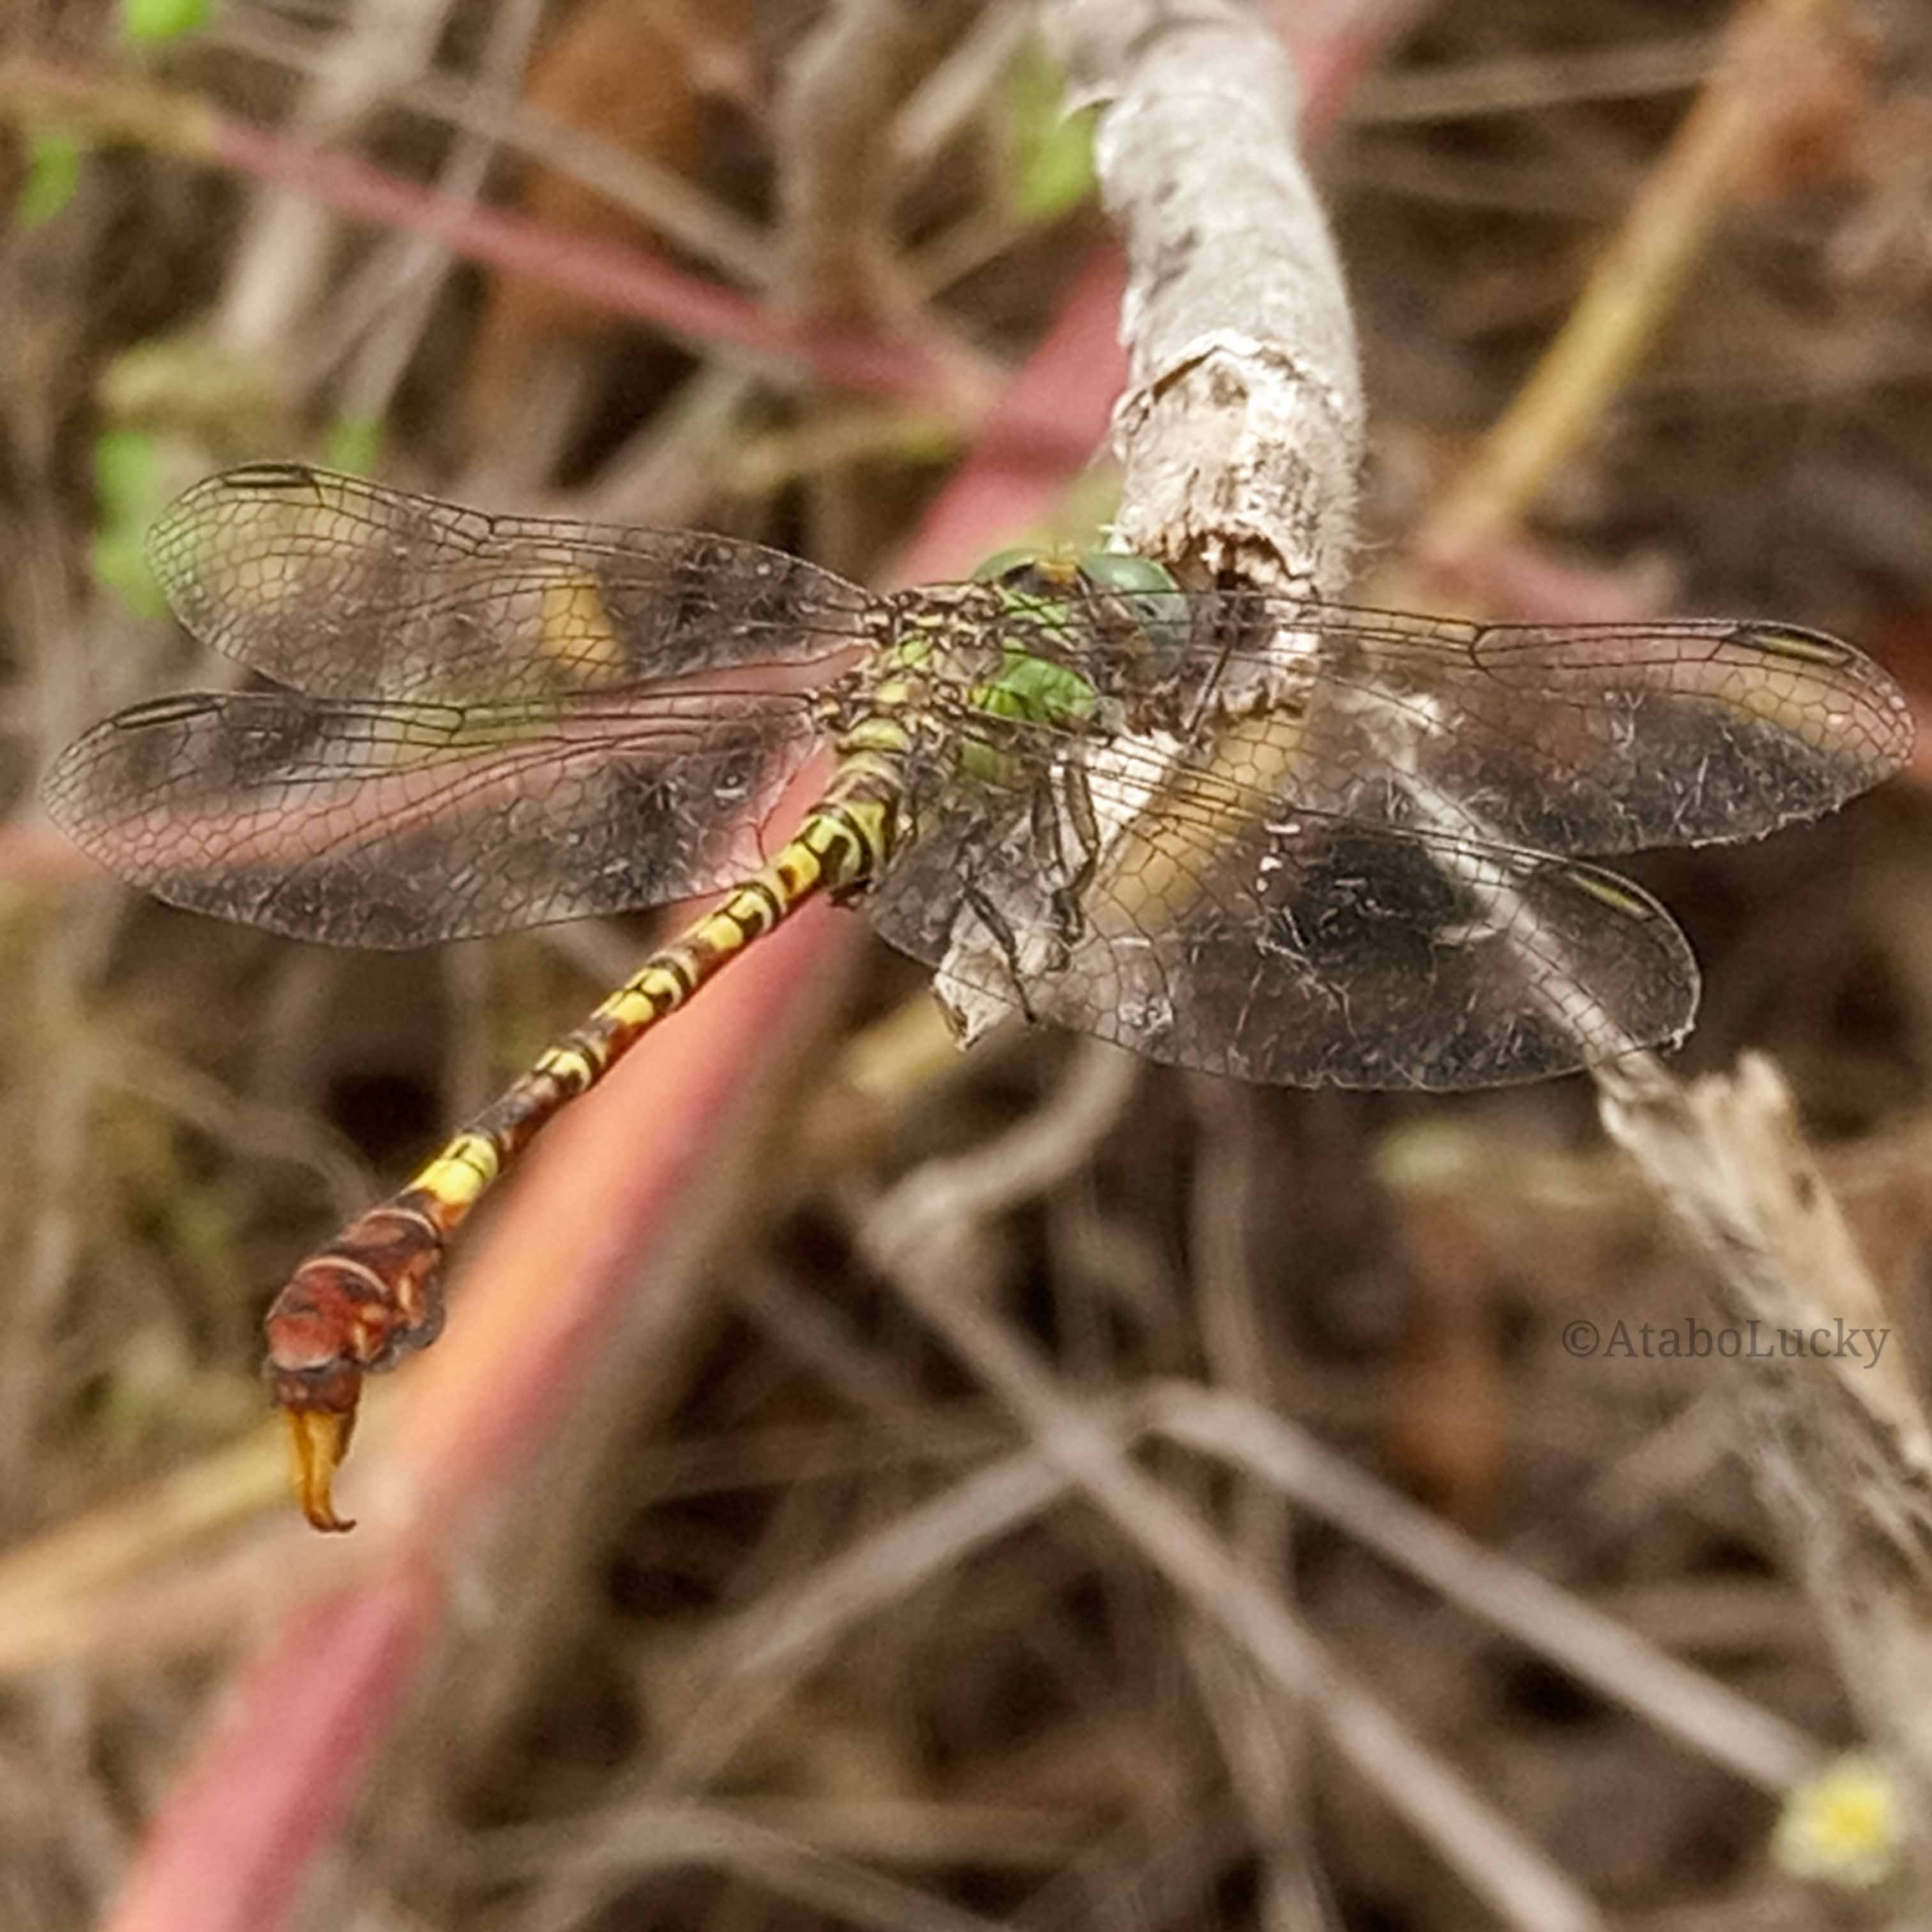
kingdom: Animalia
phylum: Arthropoda
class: Insecta
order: Odonata
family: Gomphidae
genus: Paragomphus
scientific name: Paragomphus genei
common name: Common hooktail
